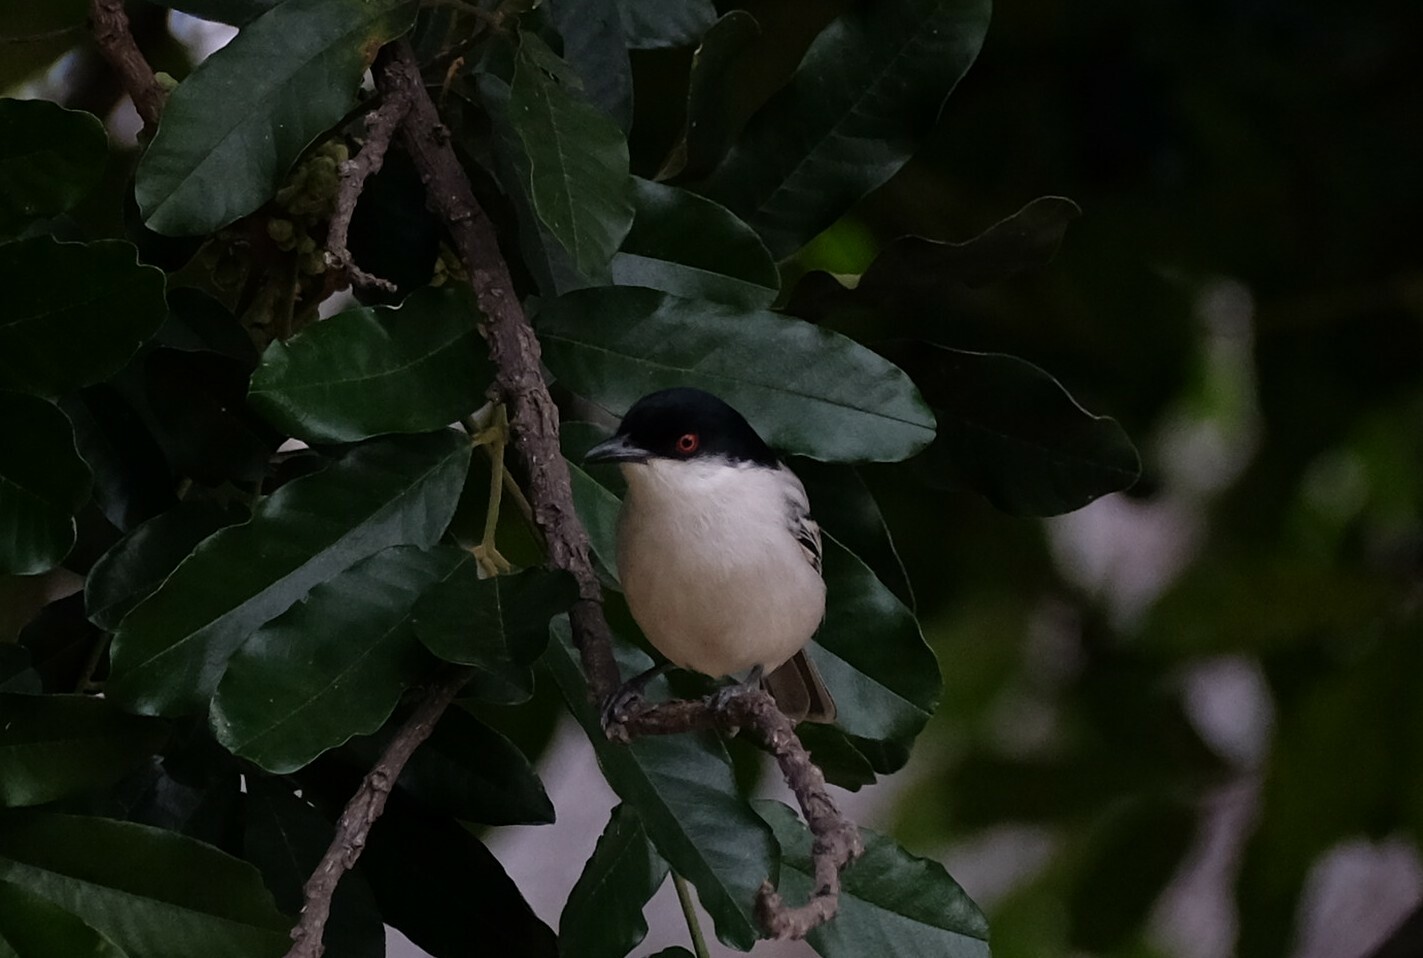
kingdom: Animalia
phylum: Chordata
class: Aves
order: Passeriformes
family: Malaconotidae
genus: Dryoscopus
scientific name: Dryoscopus cubla
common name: Black-backed puffback
